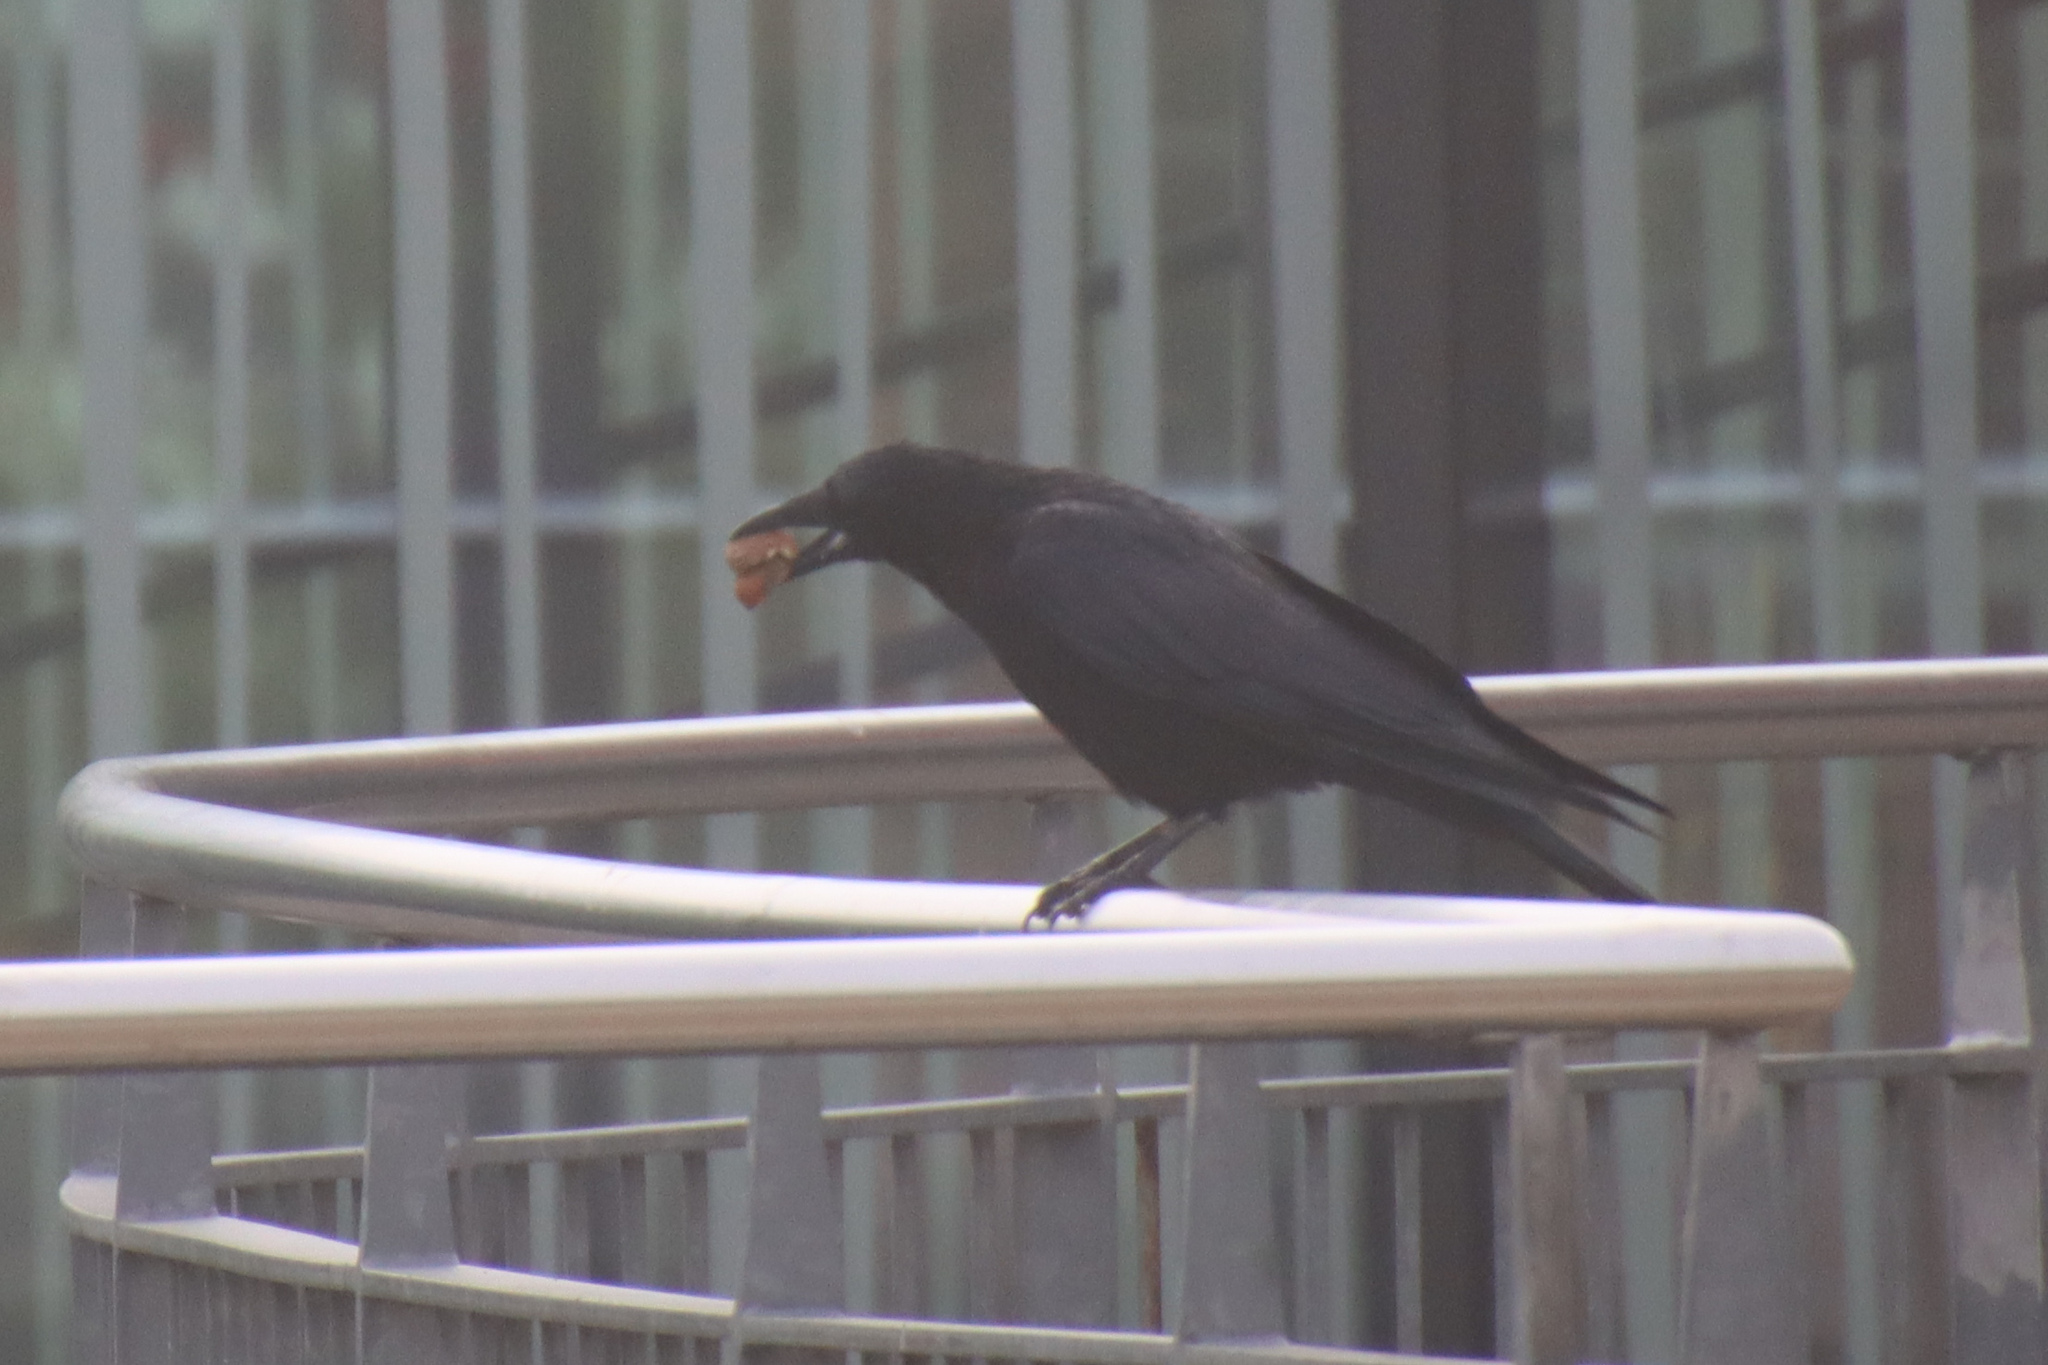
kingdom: Animalia
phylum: Chordata
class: Aves
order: Passeriformes
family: Corvidae
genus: Corvus
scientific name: Corvus corone
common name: Carrion crow
